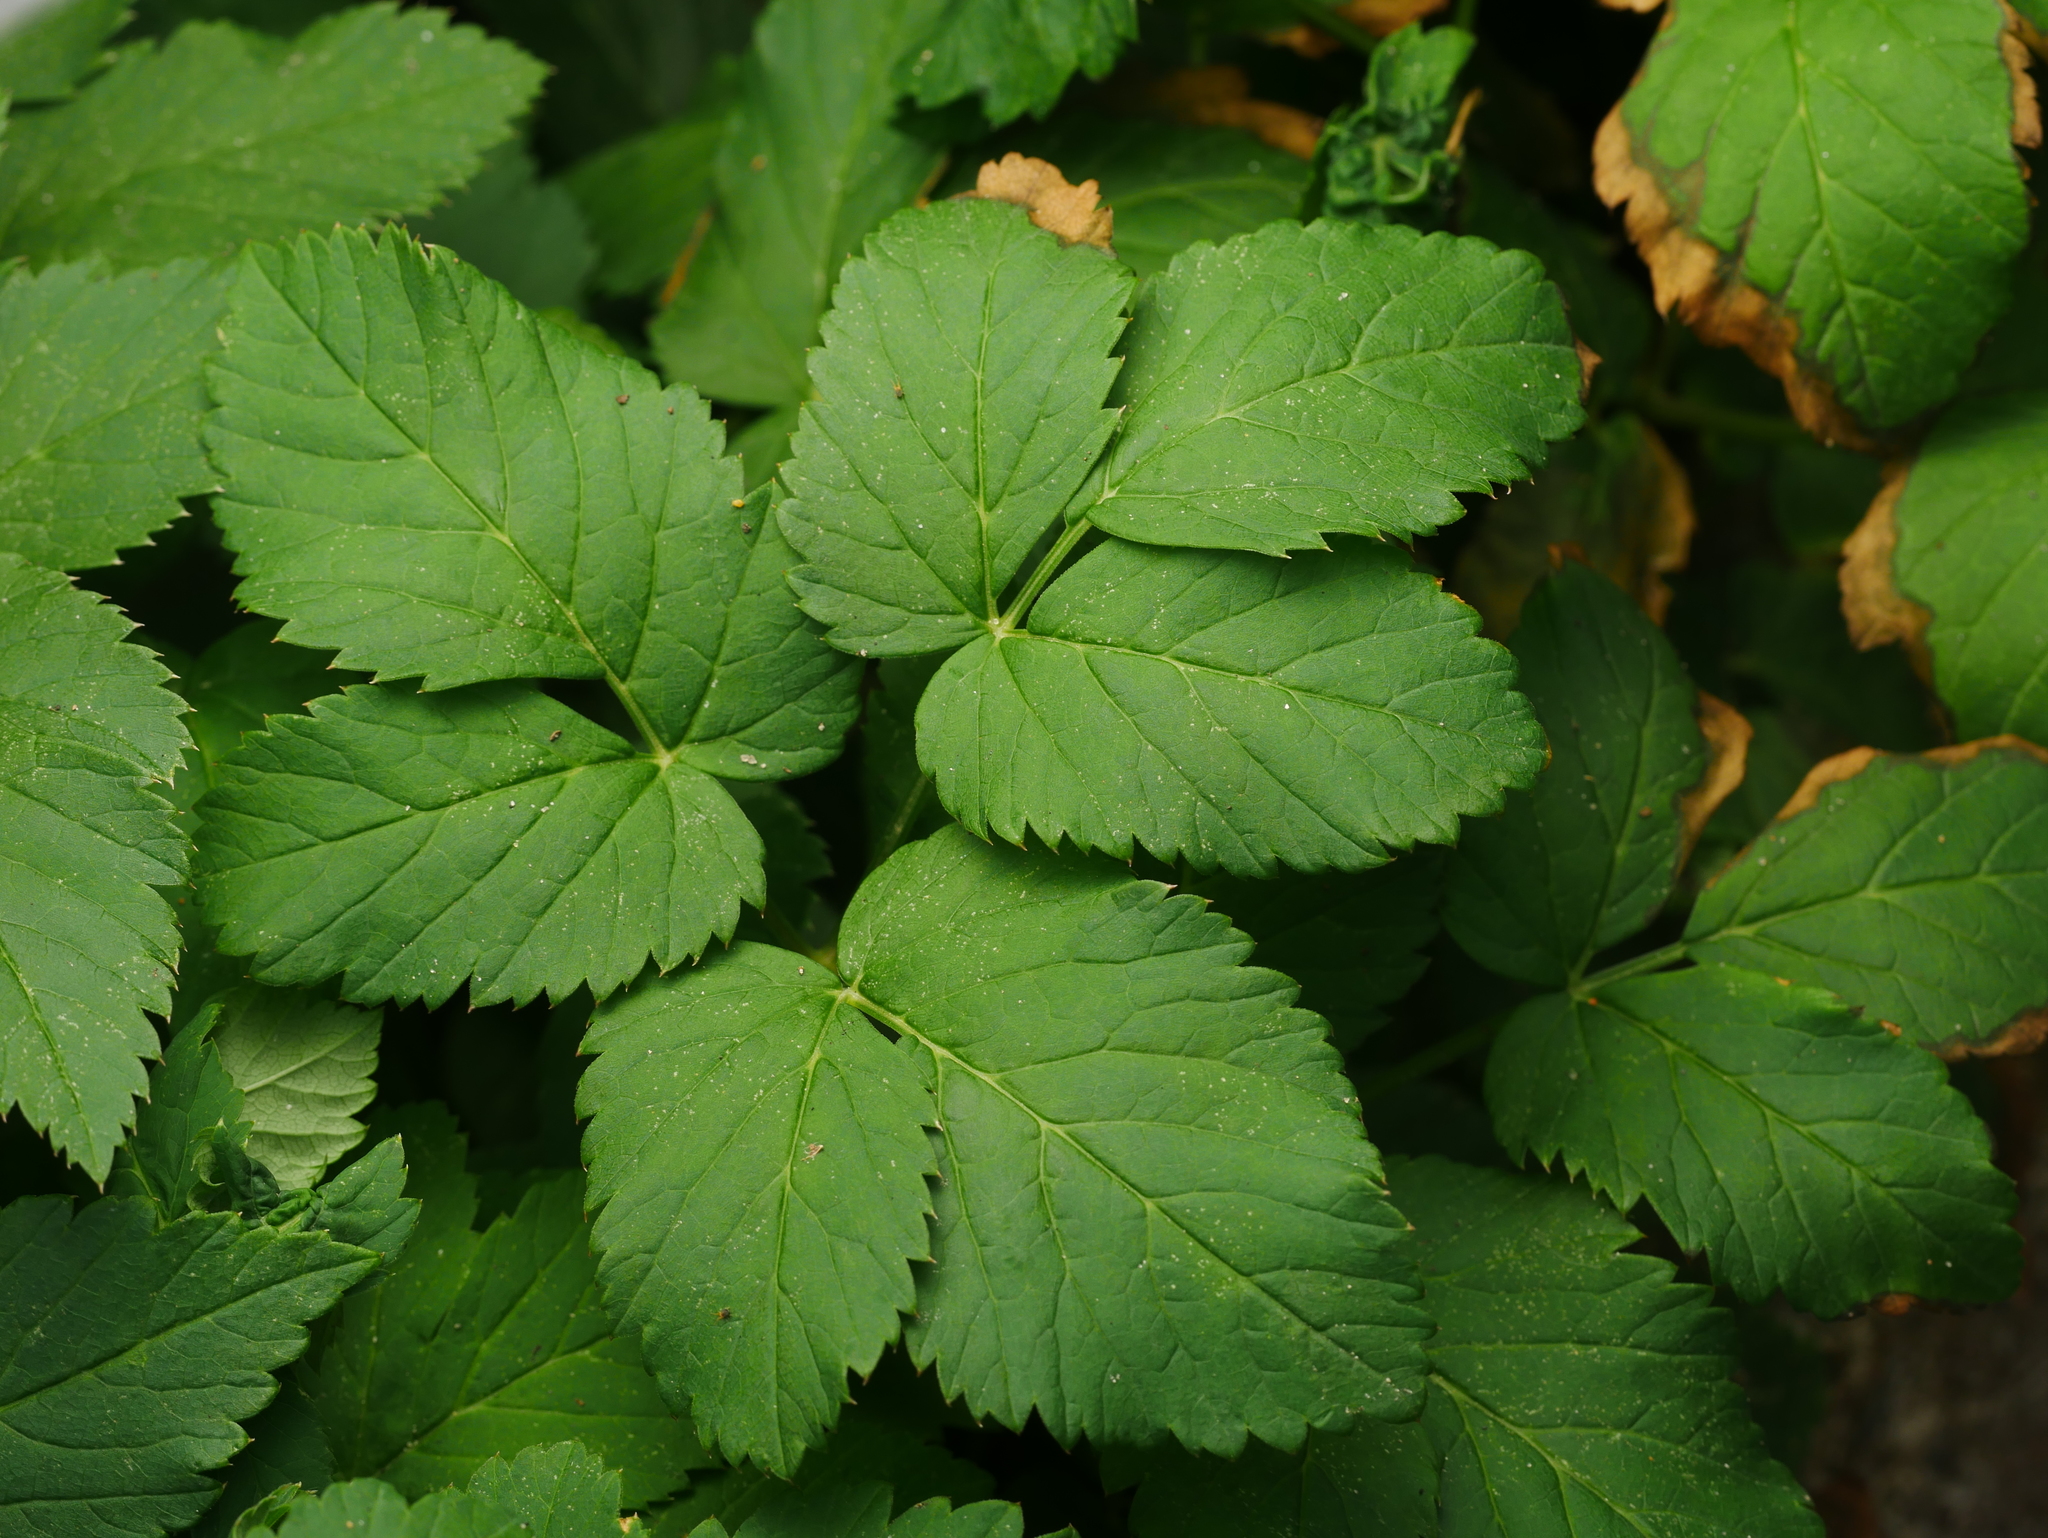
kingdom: Plantae
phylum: Tracheophyta
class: Magnoliopsida
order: Apiales
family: Apiaceae
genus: Aegopodium
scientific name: Aegopodium podagraria
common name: Ground-elder
